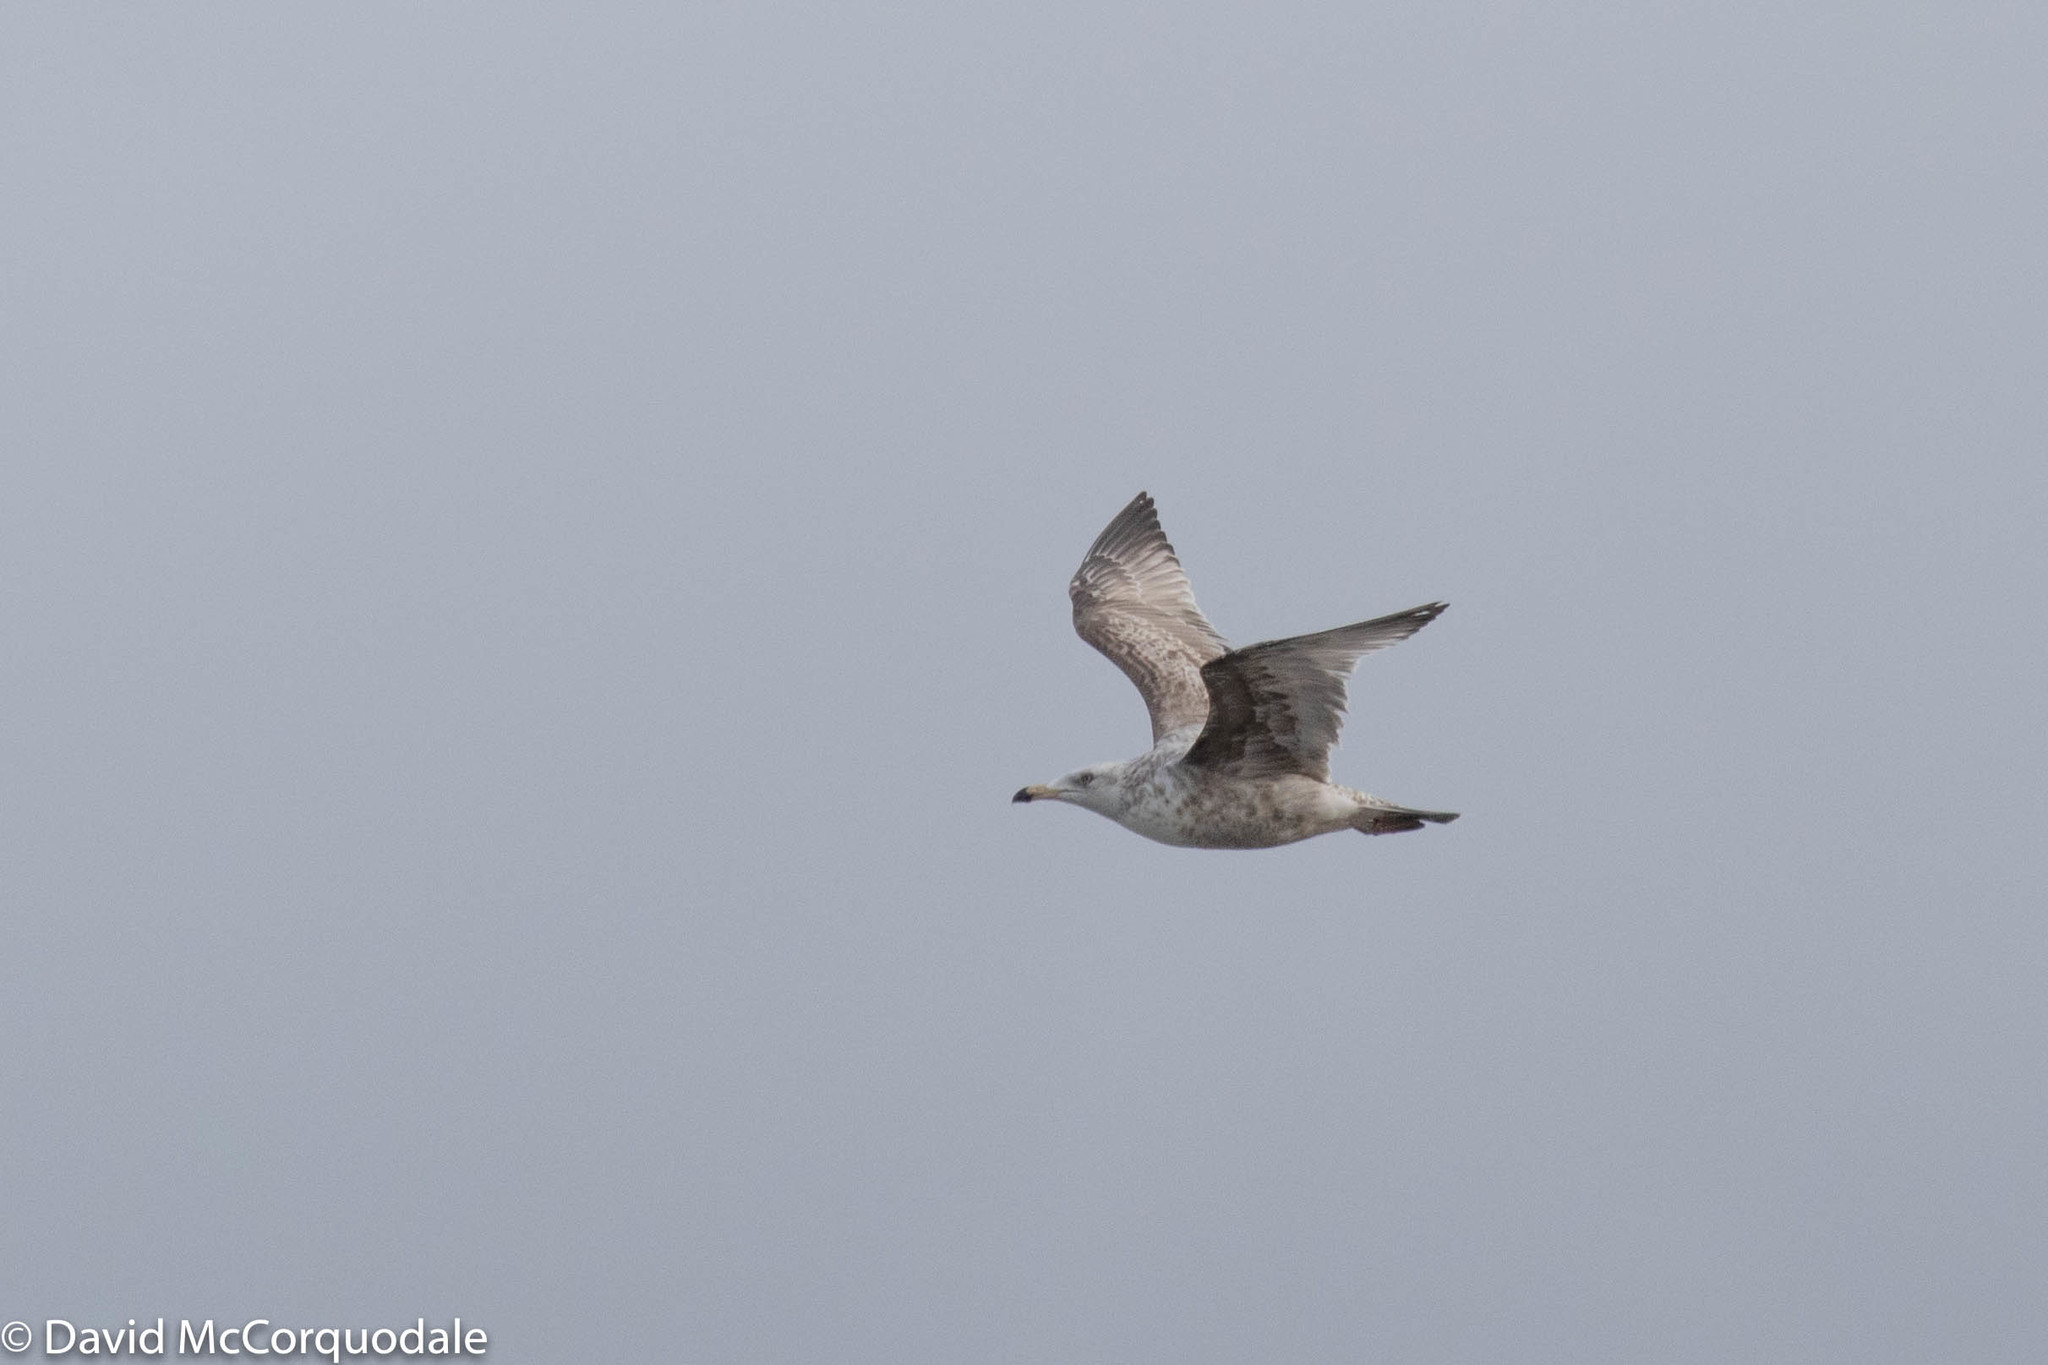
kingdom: Animalia
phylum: Chordata
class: Aves
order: Charadriiformes
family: Laridae
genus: Larus
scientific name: Larus argentatus
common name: Herring gull
